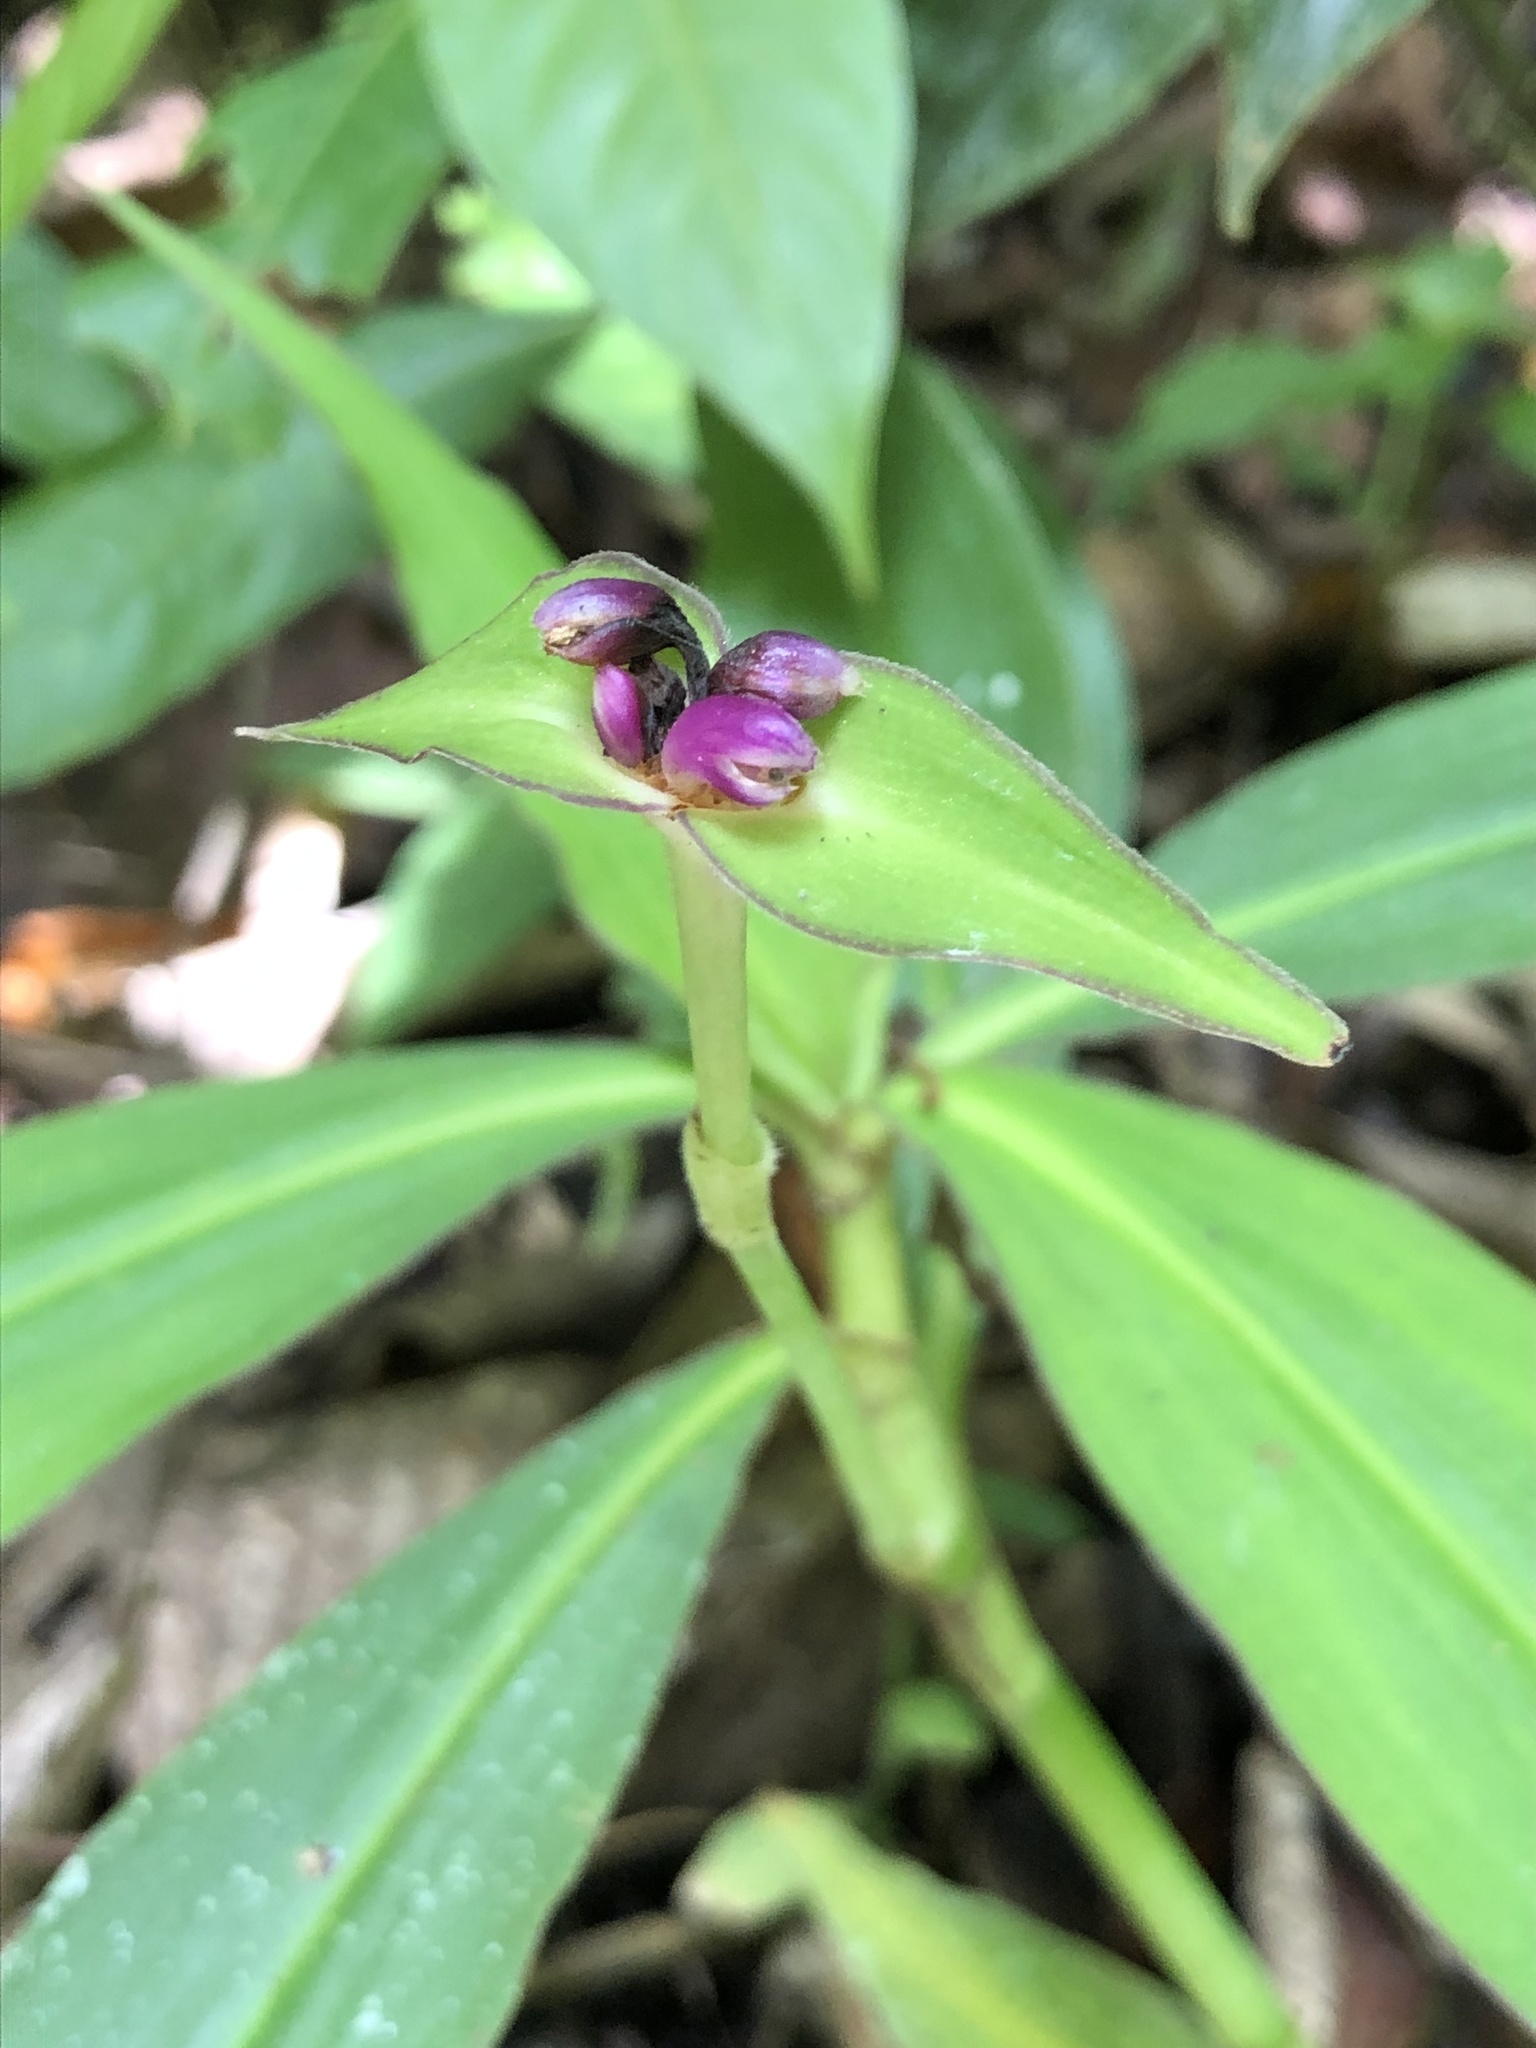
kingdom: Plantae
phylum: Tracheophyta
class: Liliopsida
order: Commelinales
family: Commelinaceae
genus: Tradescantia
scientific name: Tradescantia zanonia
